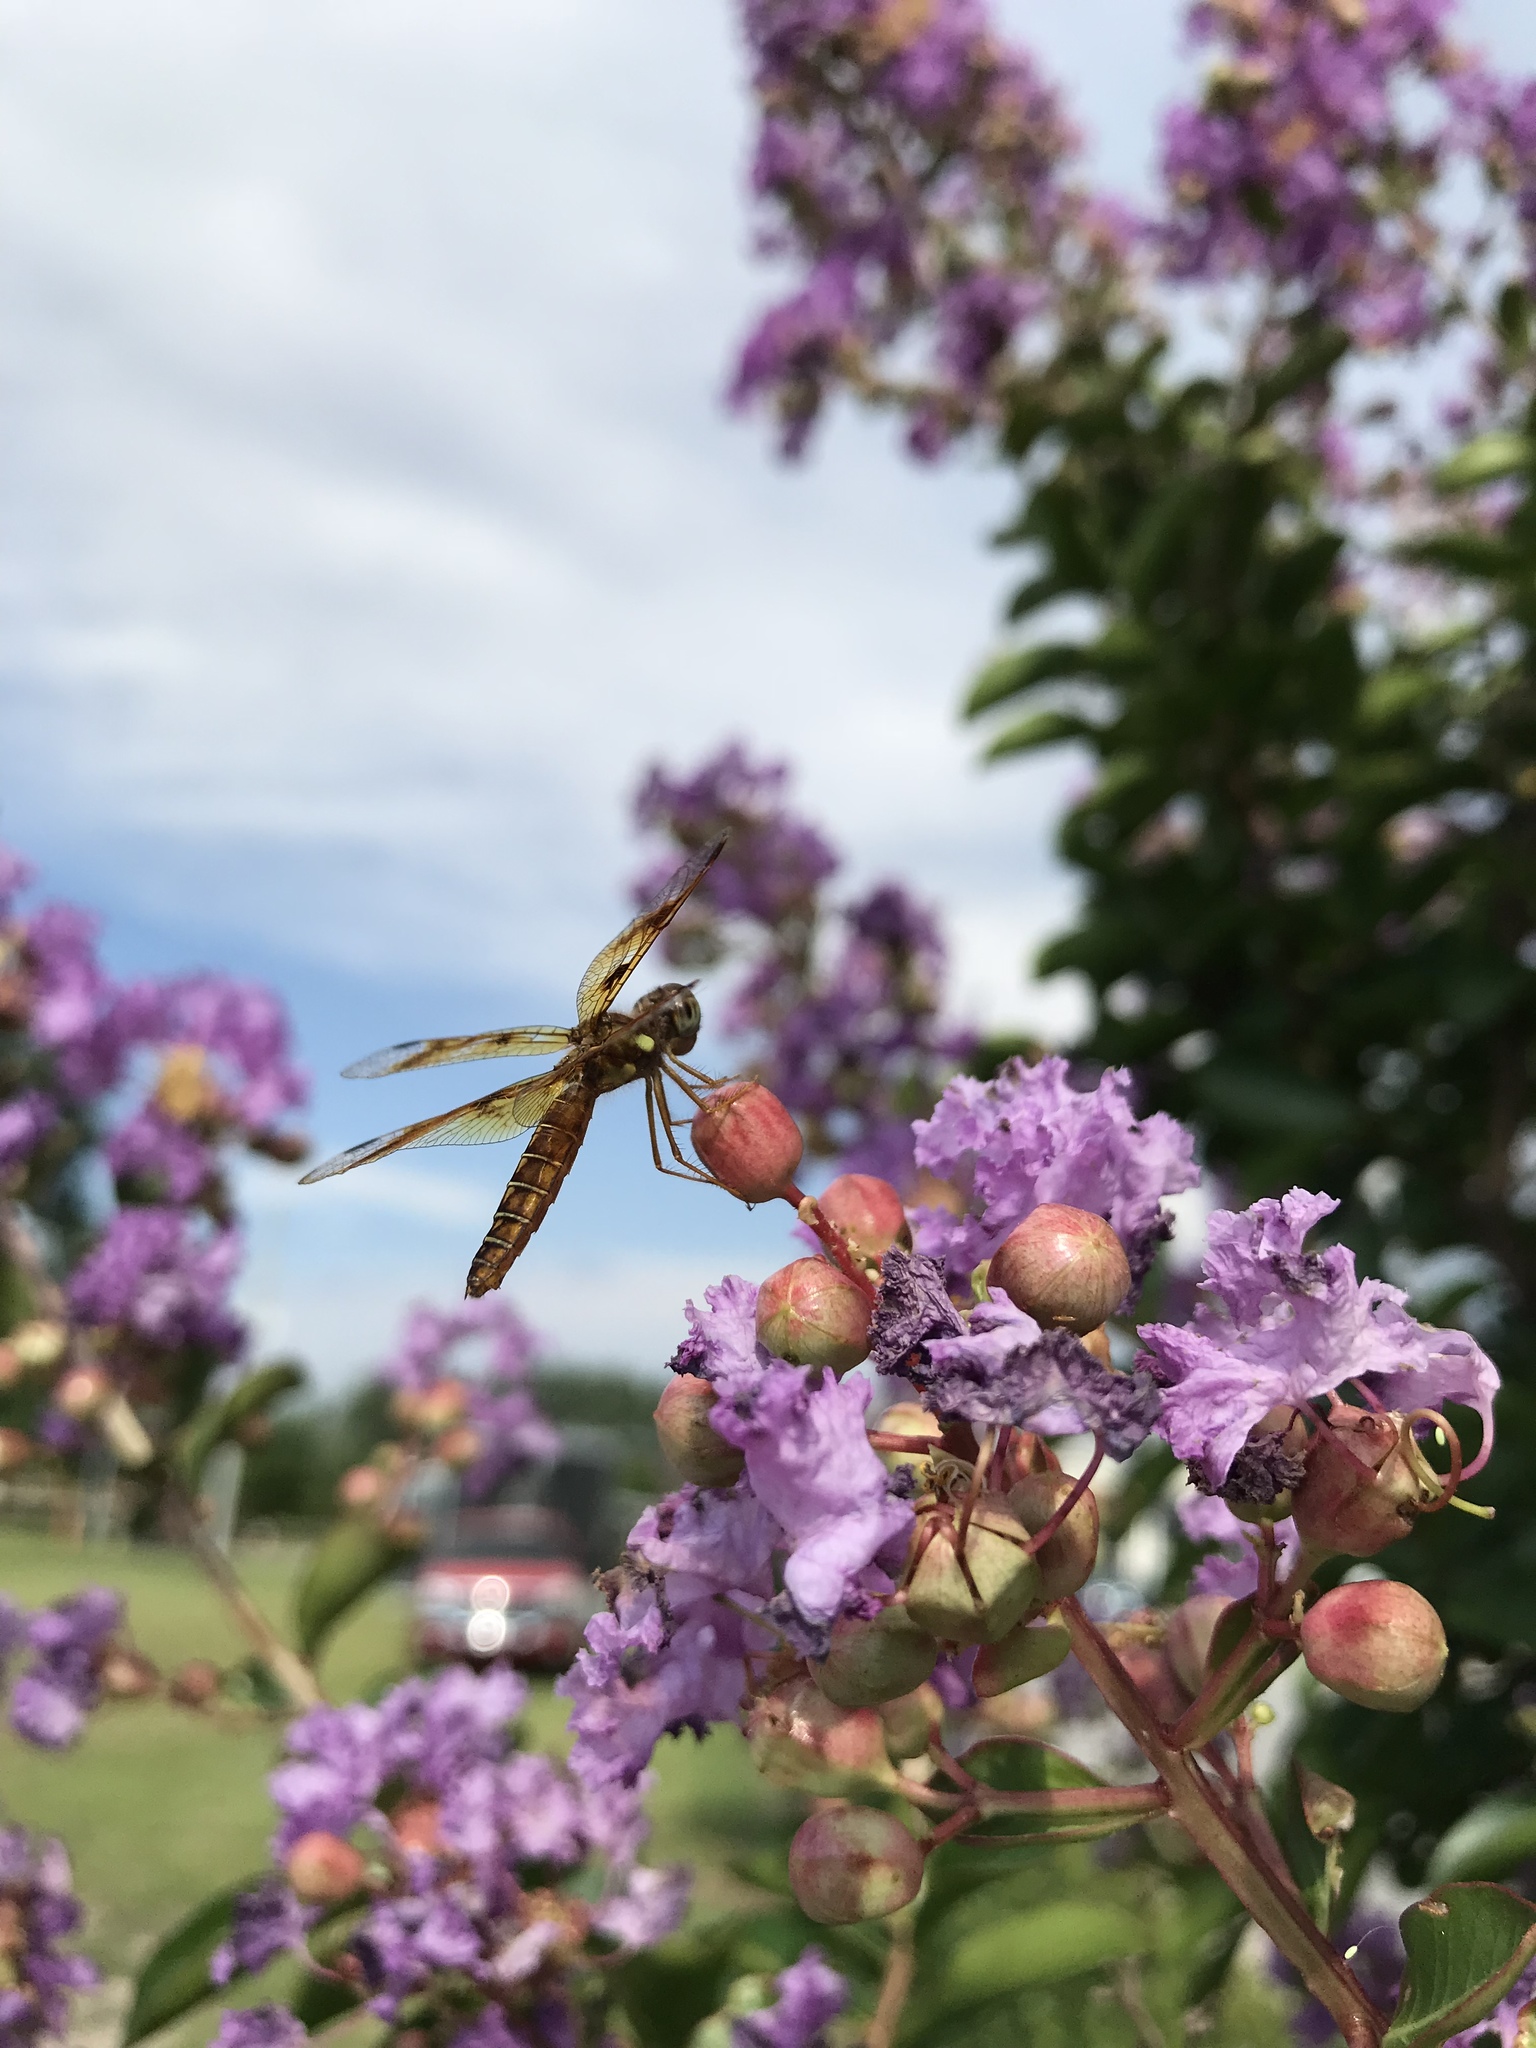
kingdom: Animalia
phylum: Arthropoda
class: Insecta
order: Odonata
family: Libellulidae
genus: Perithemis
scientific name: Perithemis tenera
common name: Eastern amberwing
